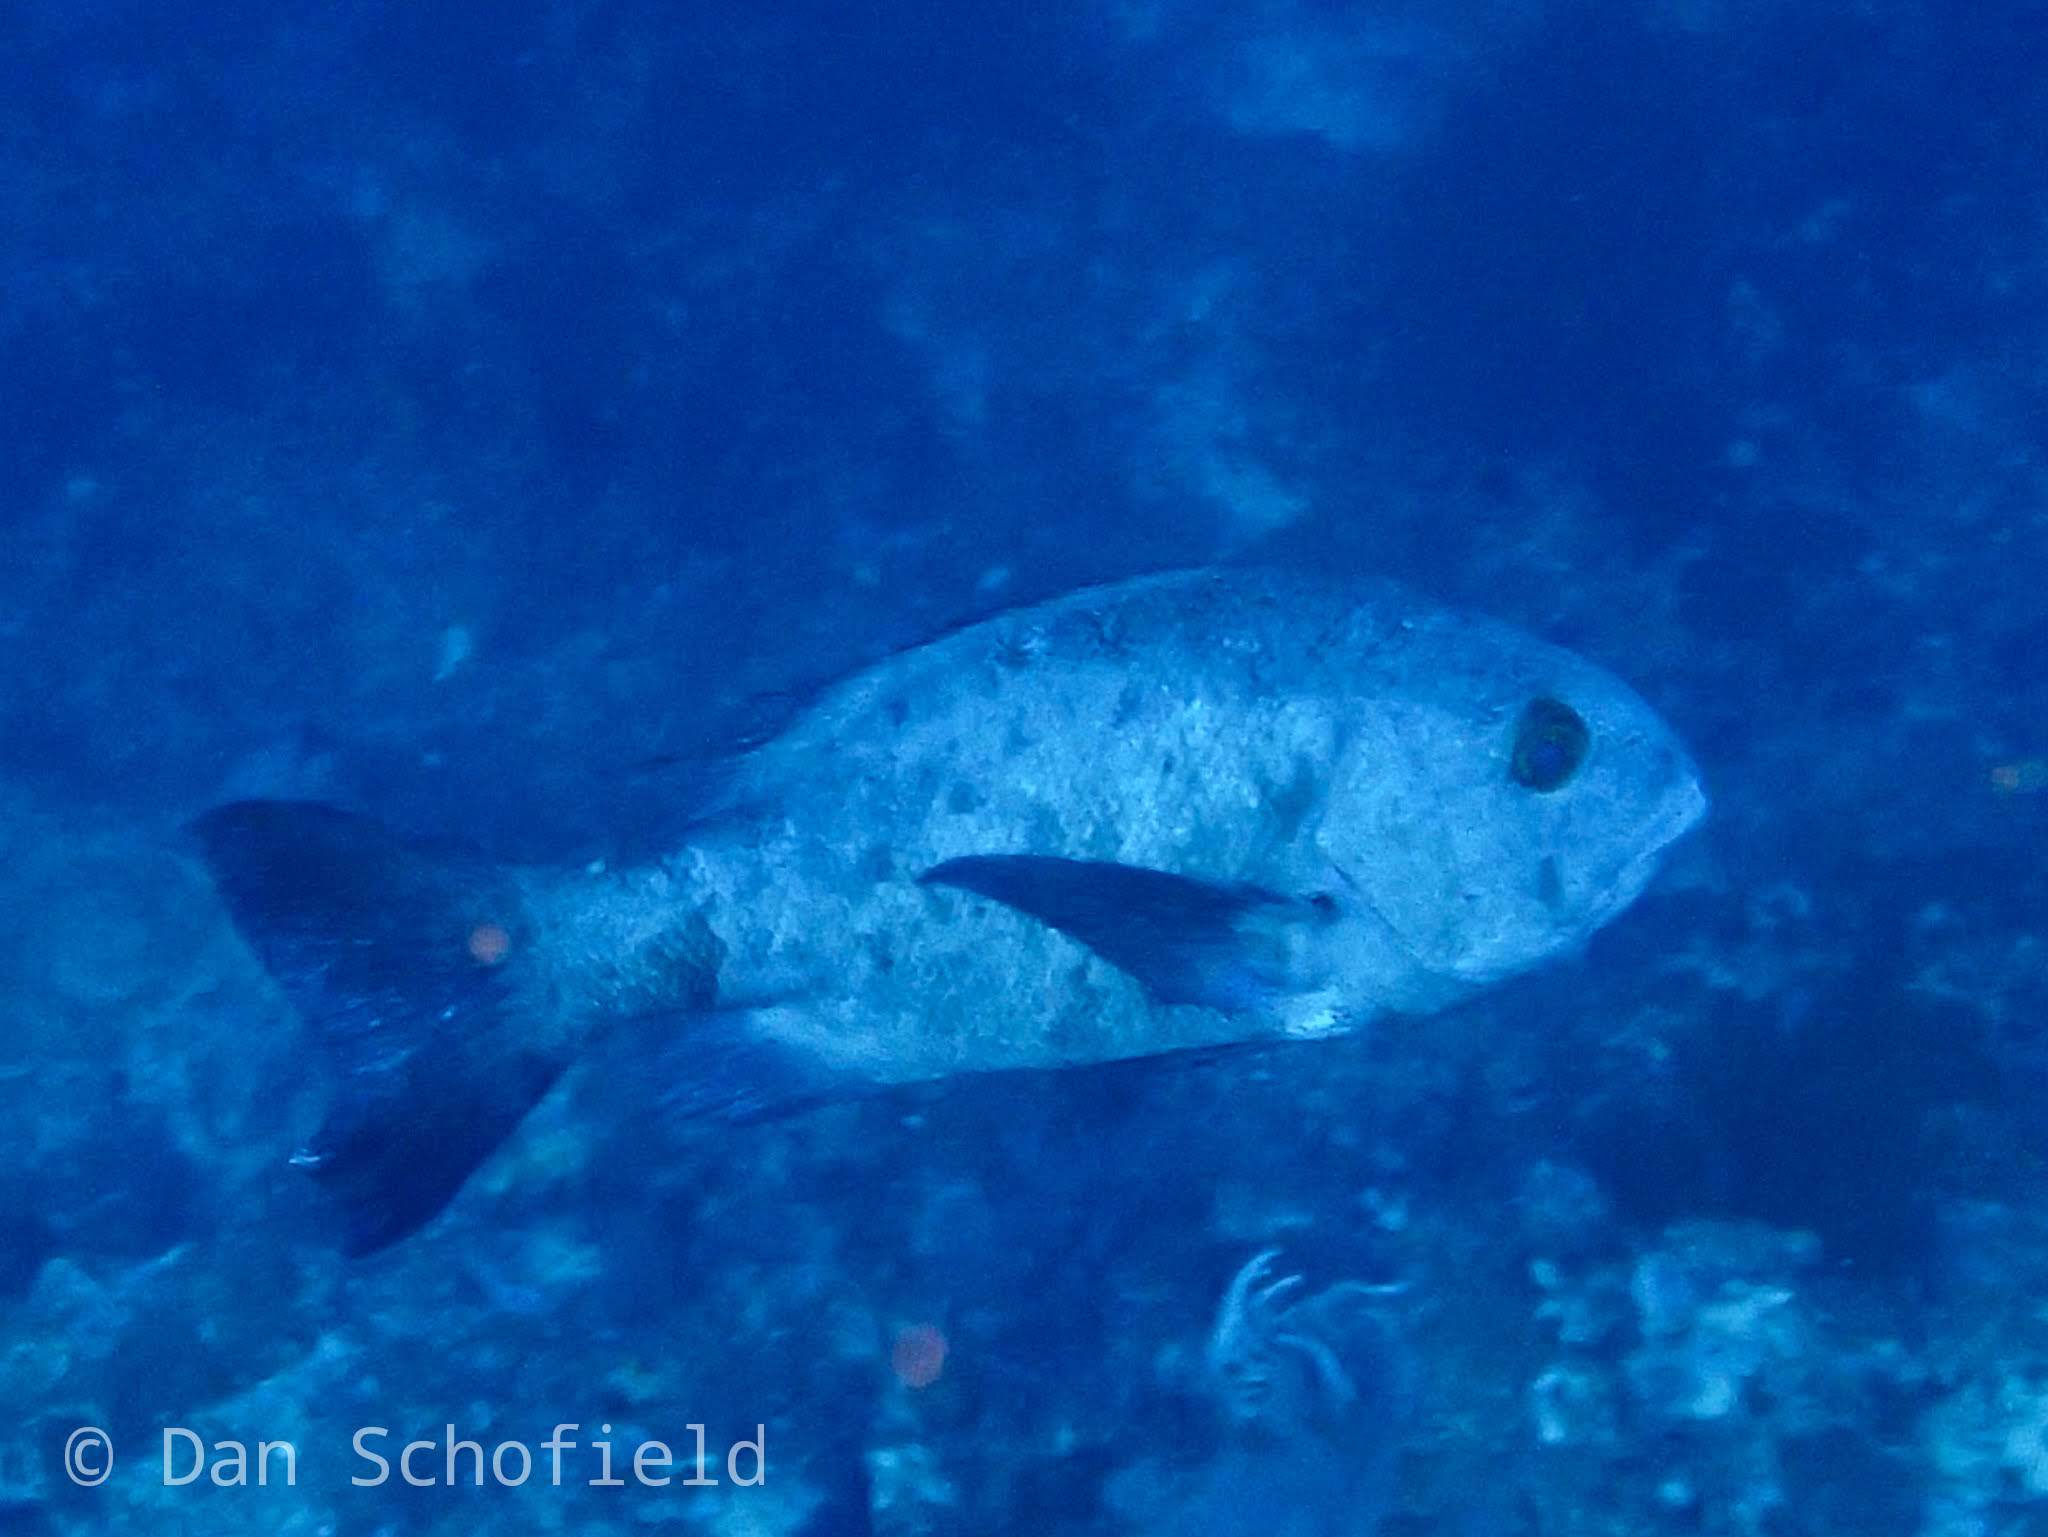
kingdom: Animalia
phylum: Chordata
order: Perciformes
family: Lutjanidae
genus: Macolor
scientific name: Macolor niger
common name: Black snapper
